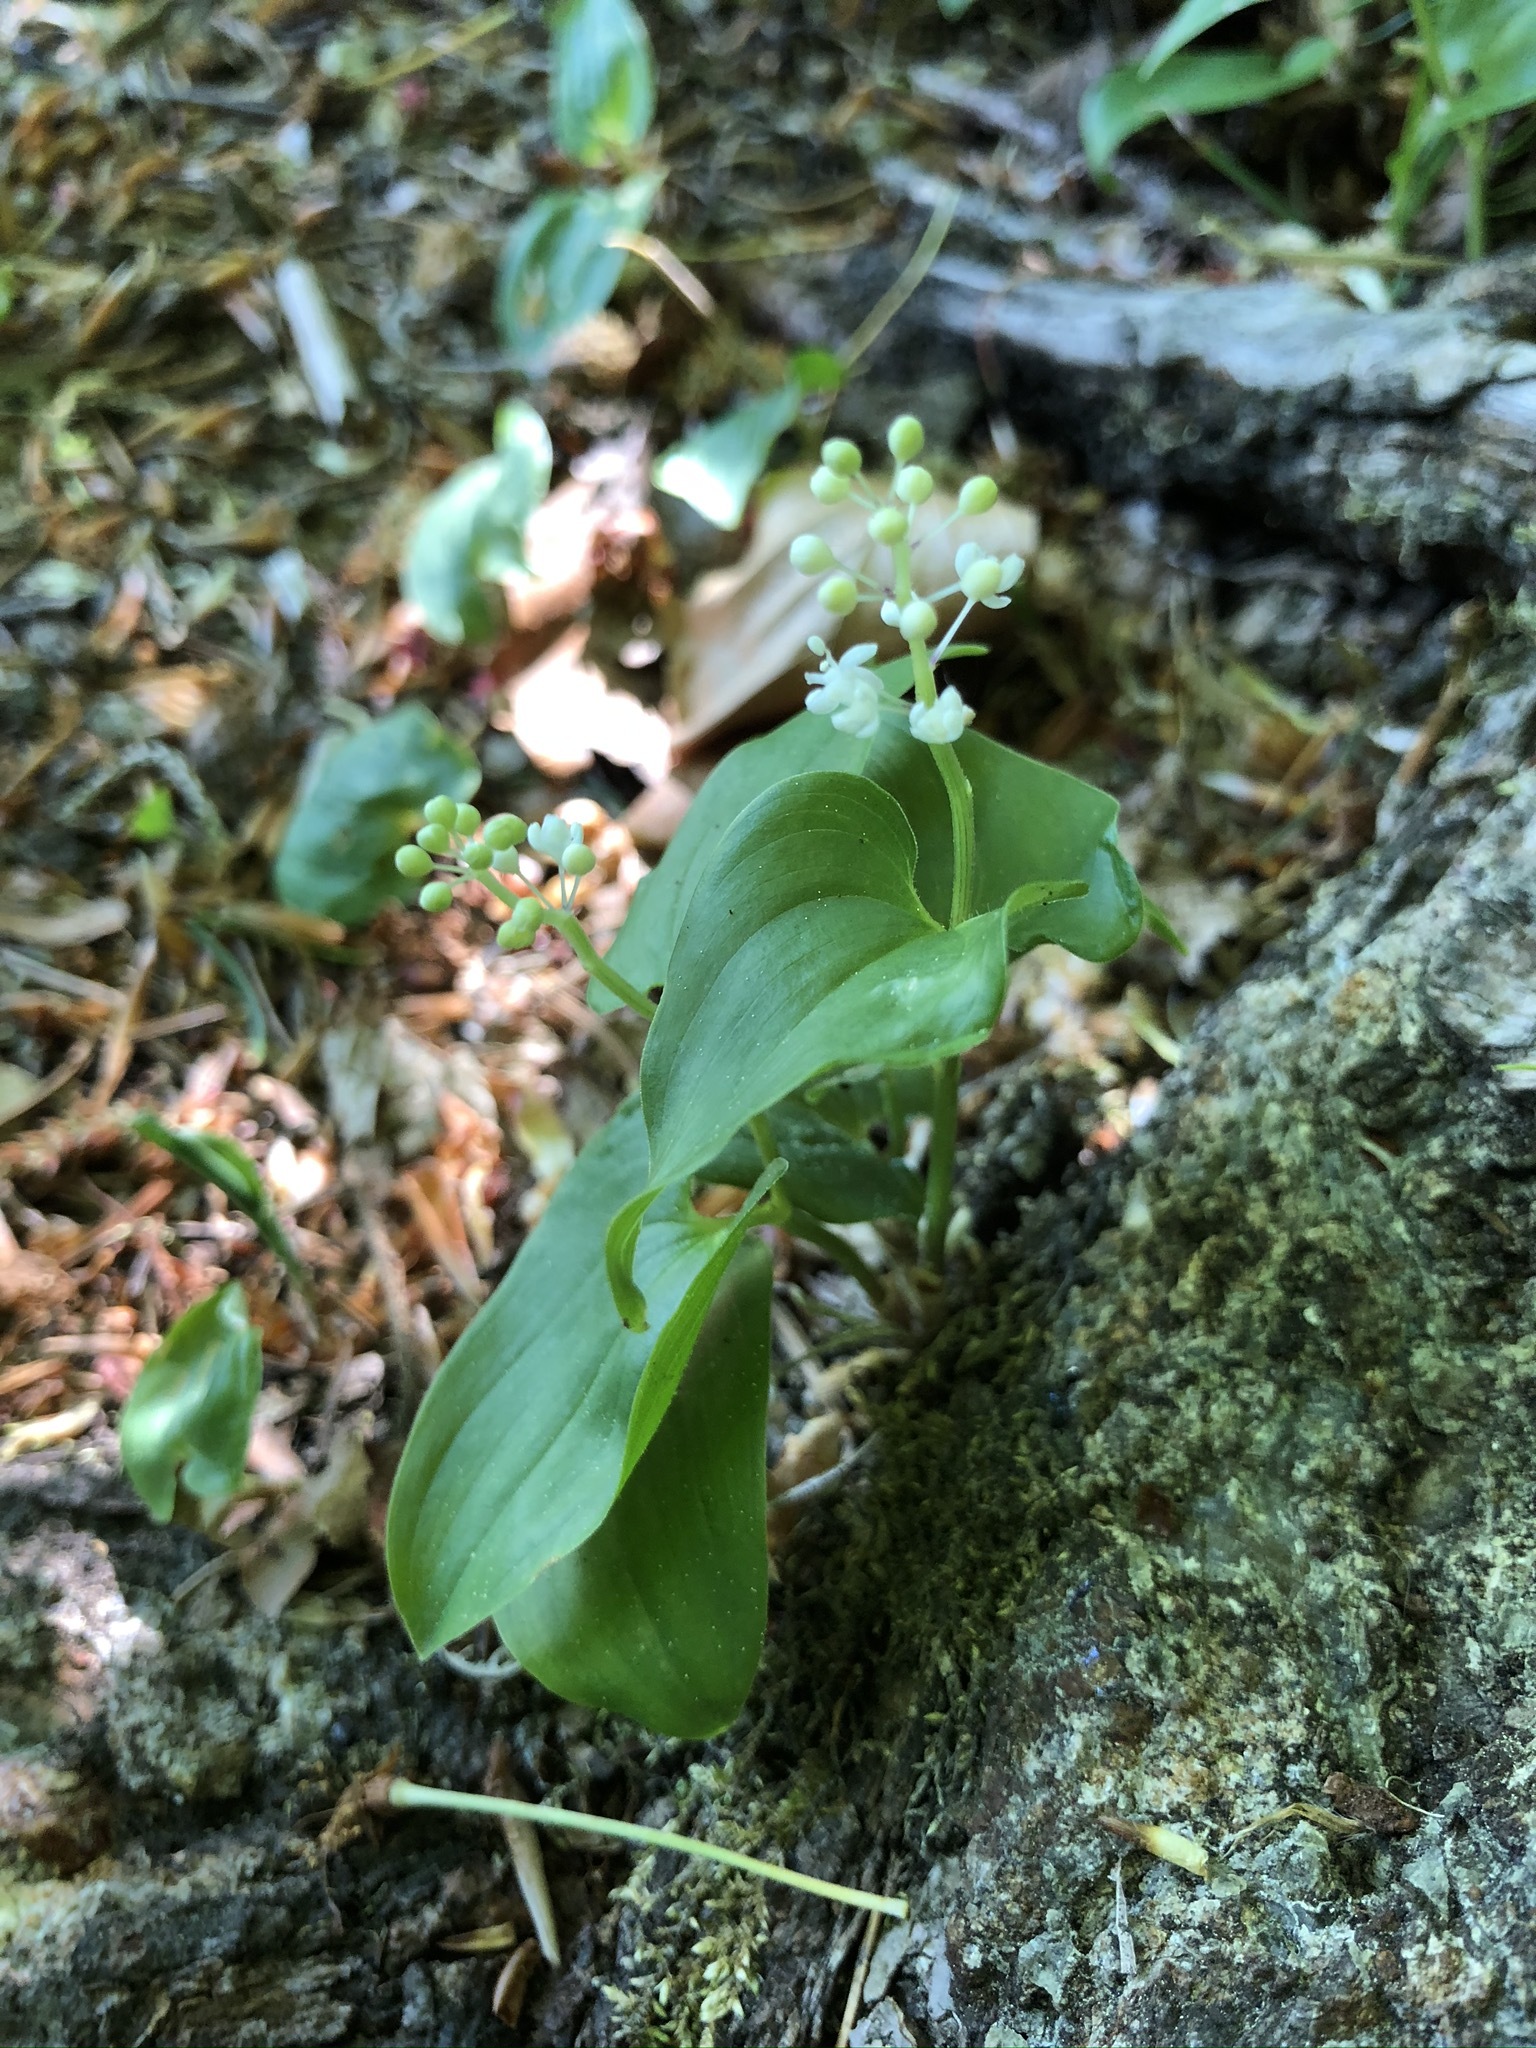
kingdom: Plantae
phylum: Tracheophyta
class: Liliopsida
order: Asparagales
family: Asparagaceae
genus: Maianthemum
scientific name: Maianthemum bifolium
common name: May lily
